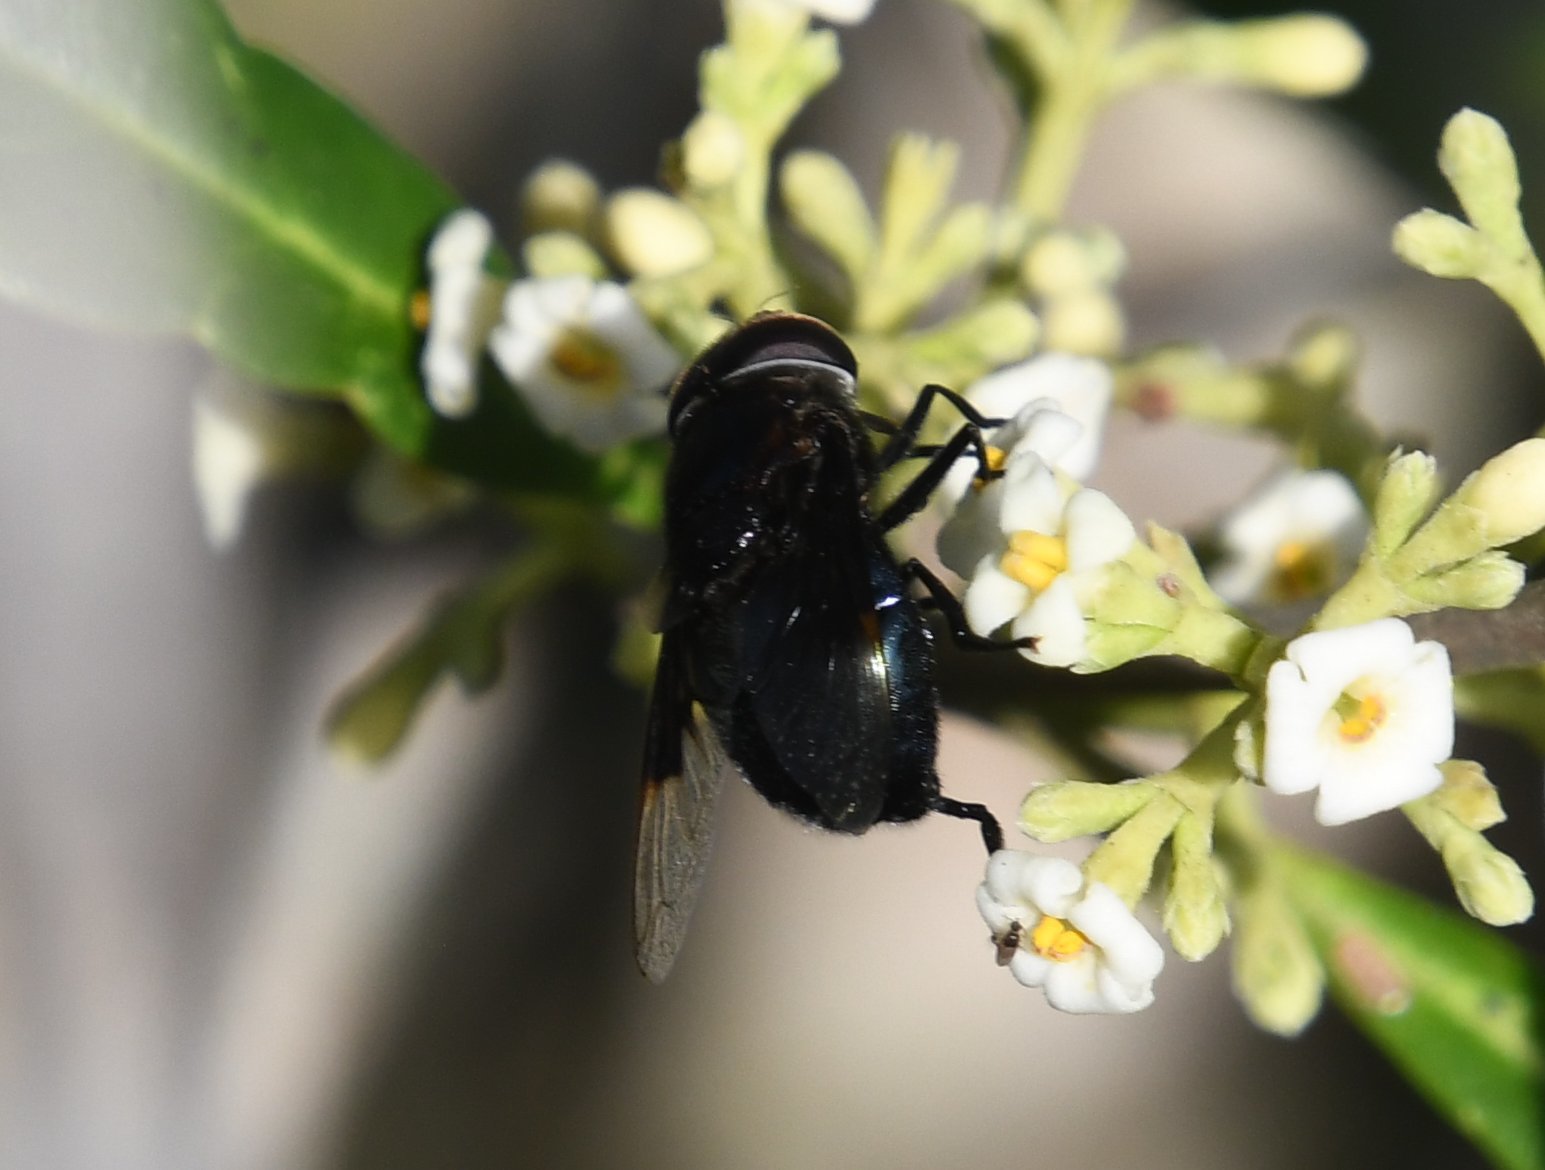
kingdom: Animalia
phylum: Arthropoda
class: Insecta
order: Diptera
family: Syrphidae
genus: Copestylum
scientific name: Copestylum mexicanum
